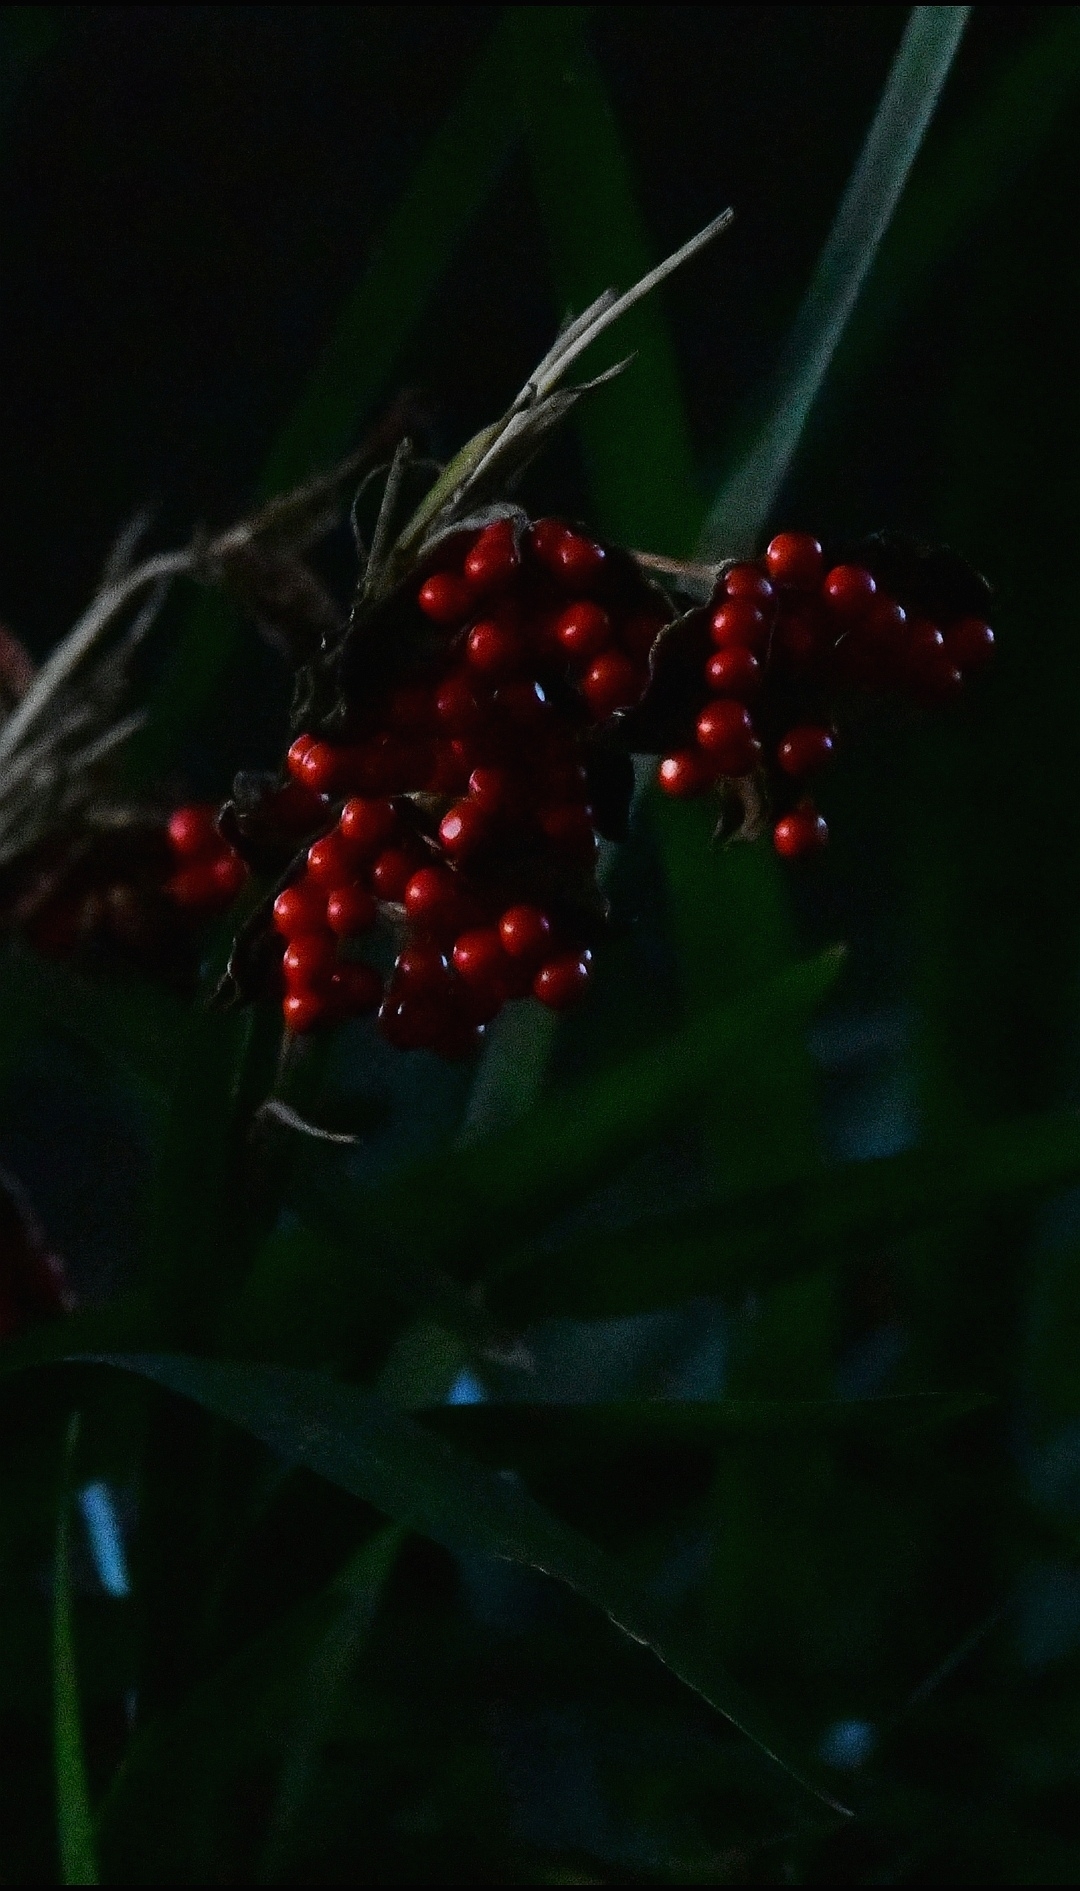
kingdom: Plantae
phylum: Tracheophyta
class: Liliopsida
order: Asparagales
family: Iridaceae
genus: Iris
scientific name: Iris foetidissima
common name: Stinking iris
